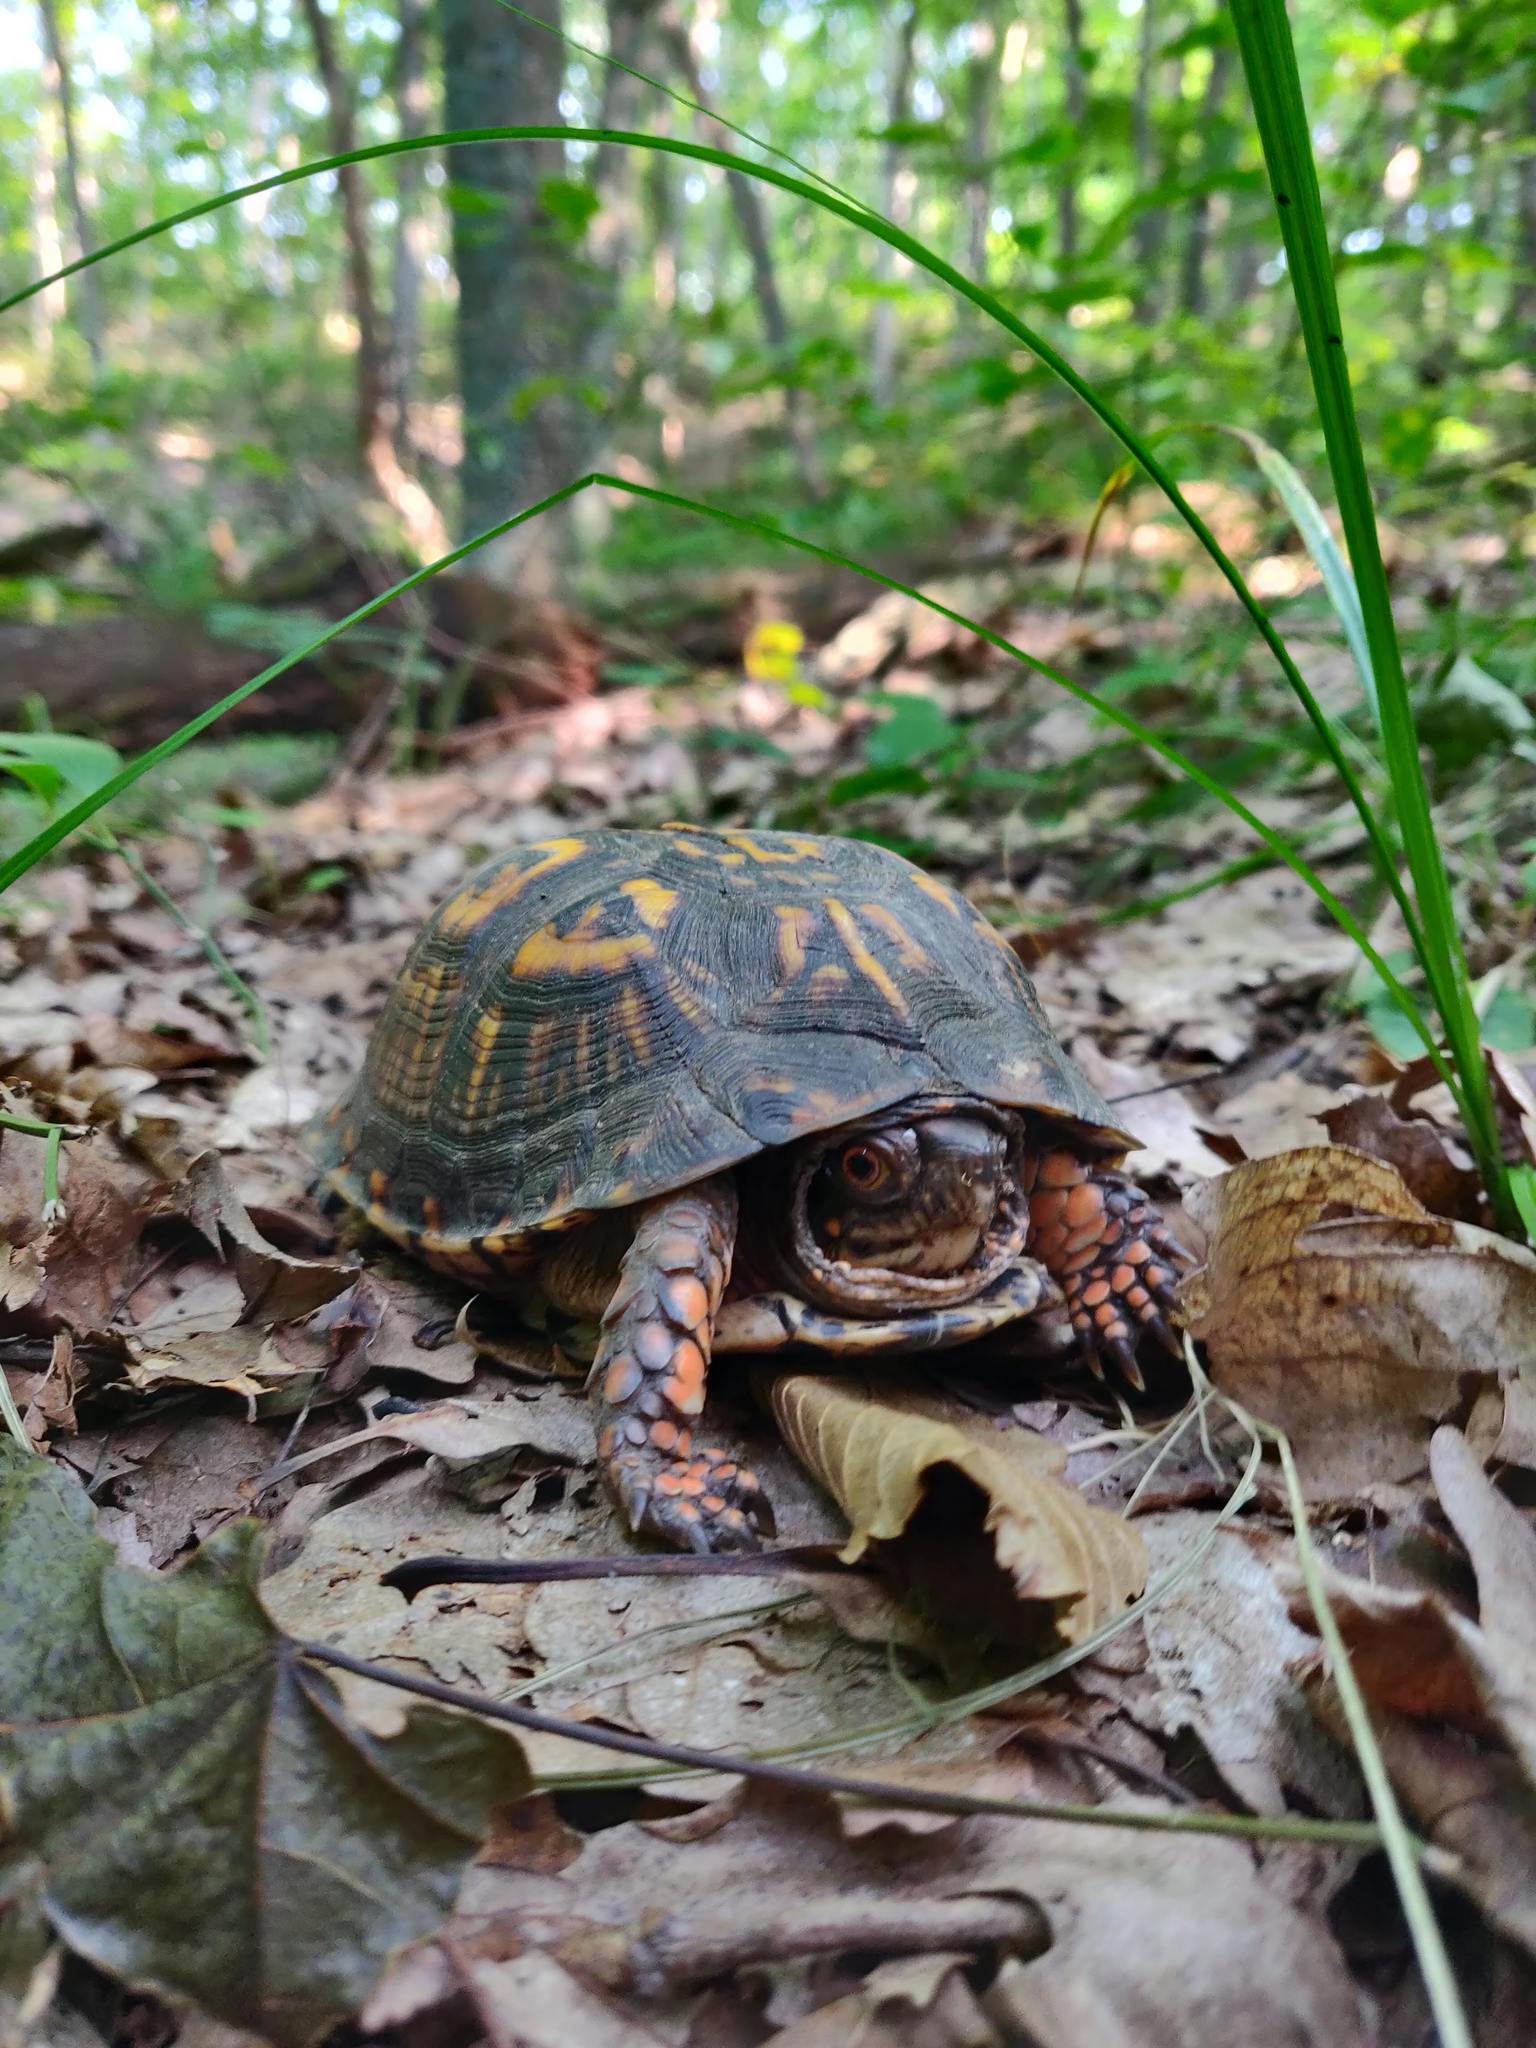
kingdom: Animalia
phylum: Chordata
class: Testudines
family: Emydidae
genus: Terrapene
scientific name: Terrapene carolina
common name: Common box turtle
